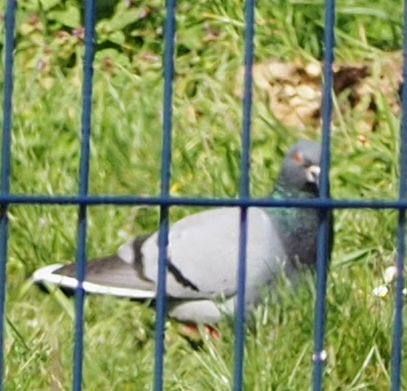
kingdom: Animalia
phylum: Chordata
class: Aves
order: Columbiformes
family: Columbidae
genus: Columba
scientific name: Columba livia
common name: Rock pigeon
